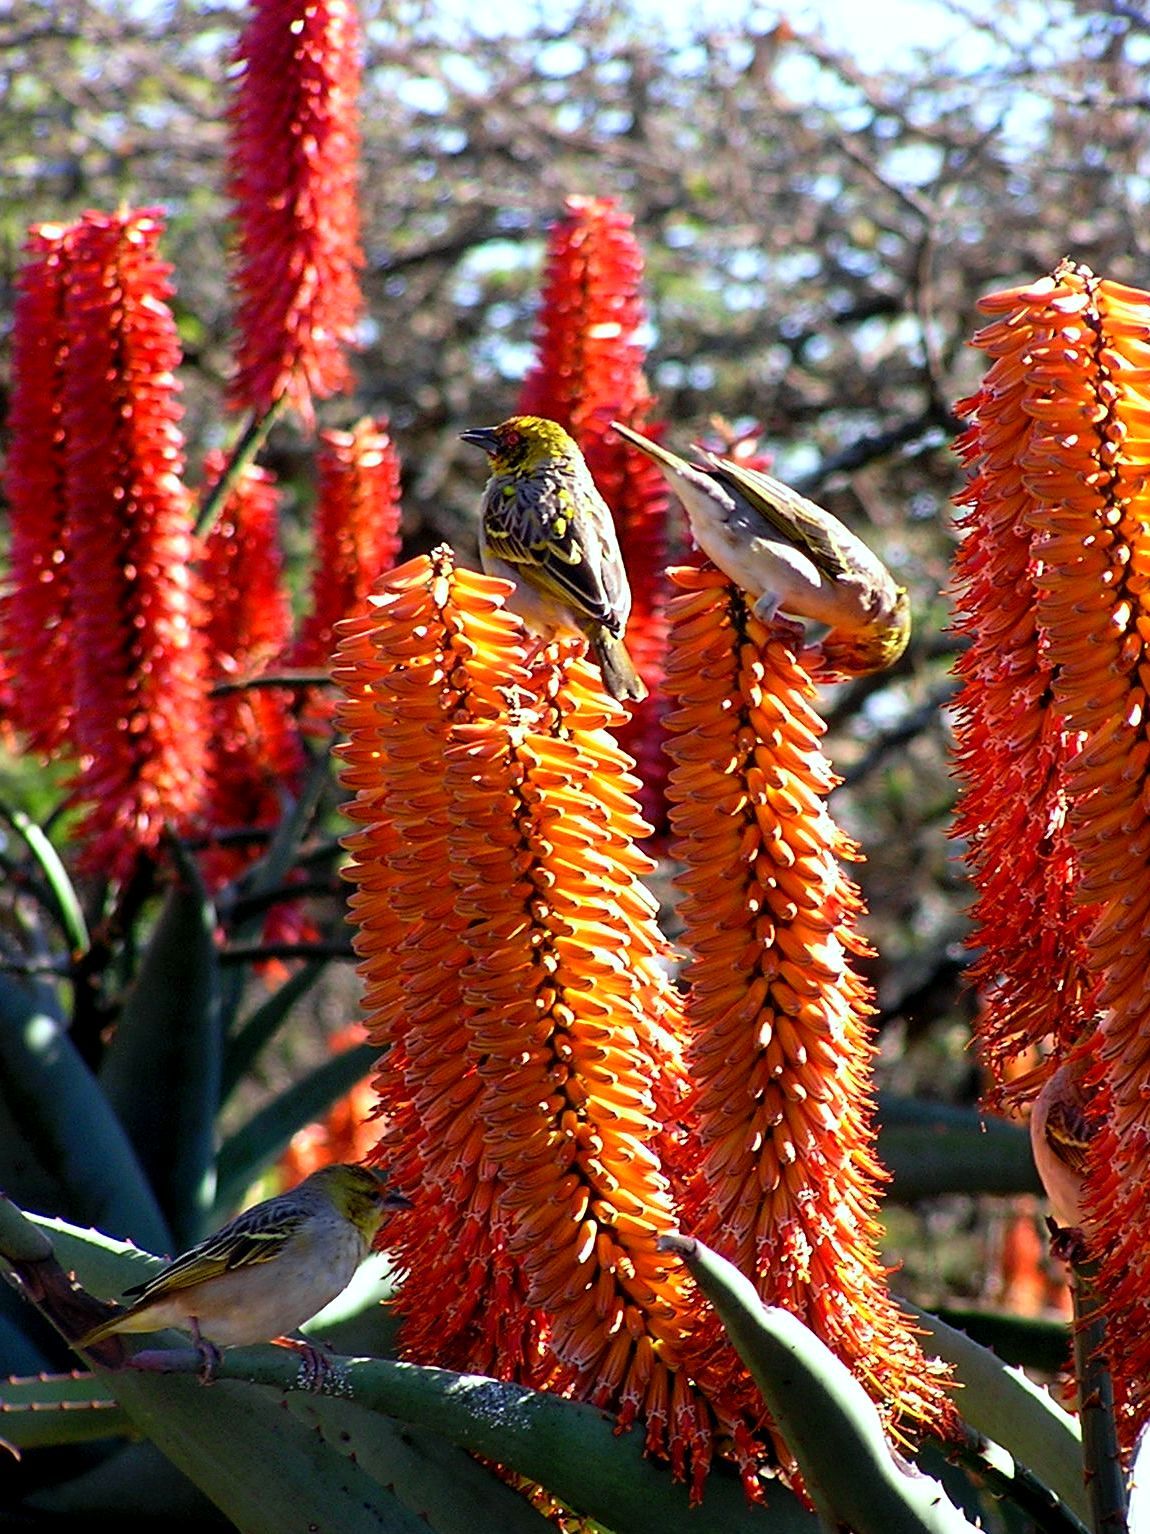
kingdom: Animalia
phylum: Chordata
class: Aves
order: Passeriformes
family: Ploceidae
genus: Ploceus
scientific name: Ploceus cucullatus
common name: Village weaver
